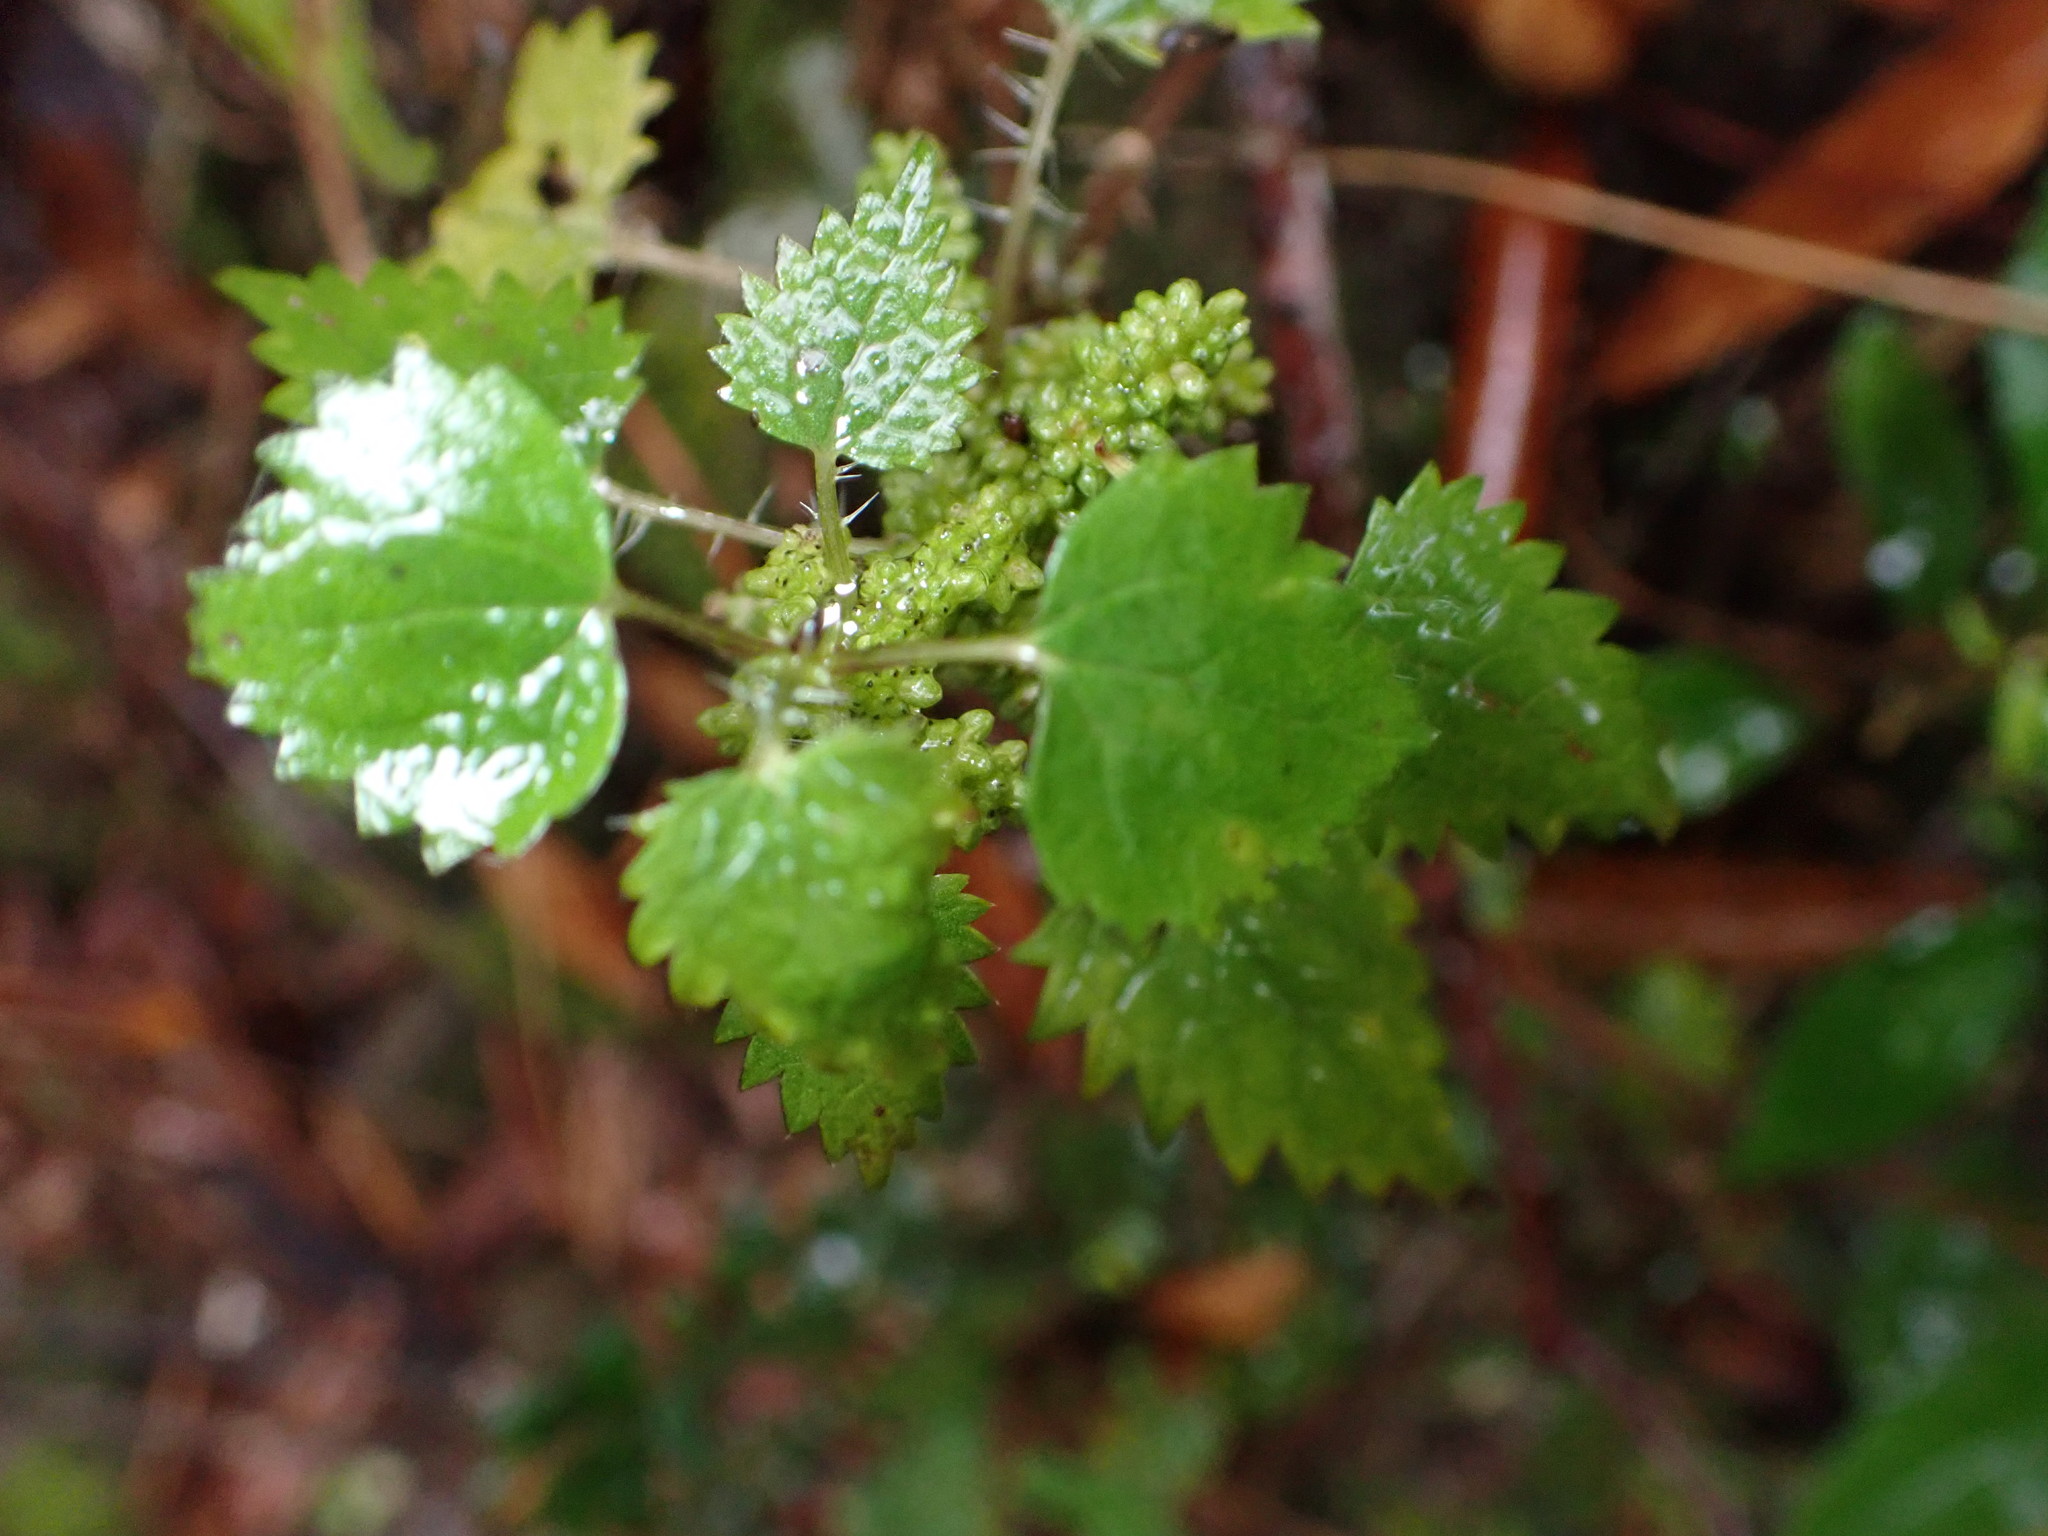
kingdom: Plantae
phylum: Tracheophyta
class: Magnoliopsida
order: Rosales
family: Urticaceae
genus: Urtica
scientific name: Urtica sykesii
